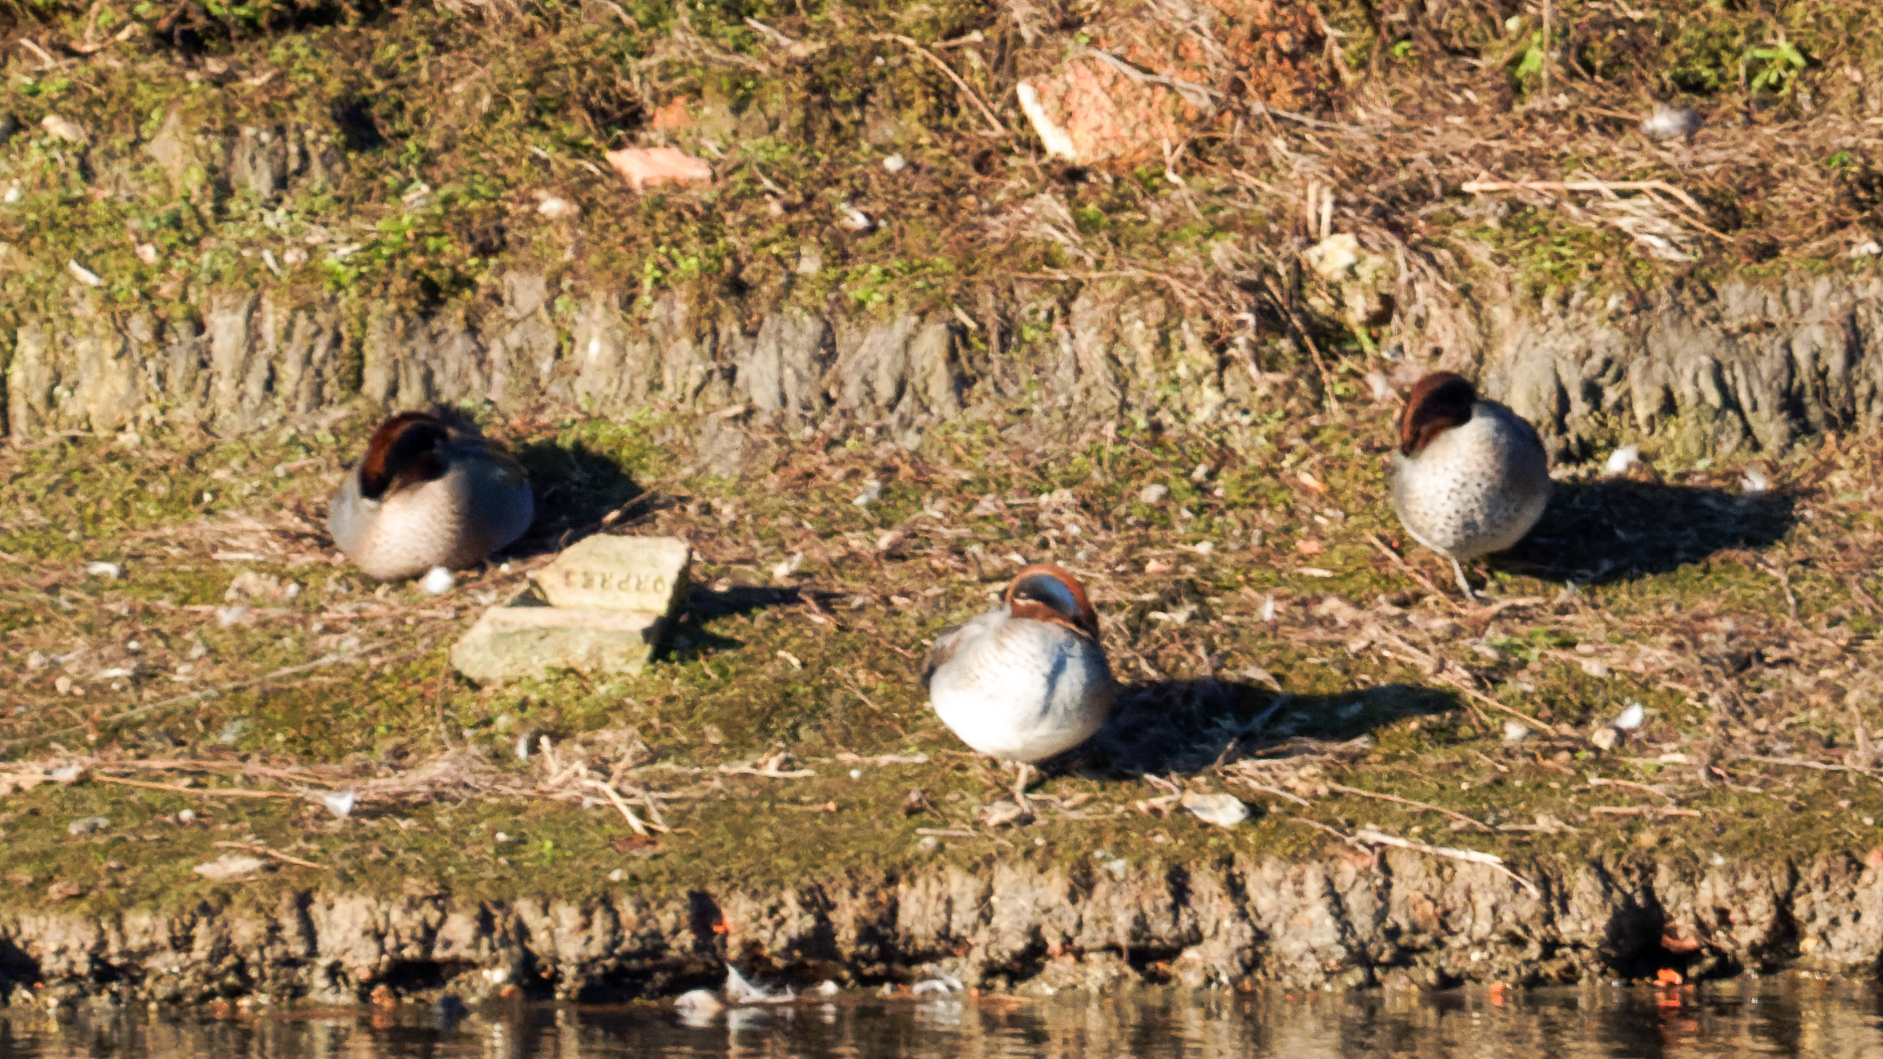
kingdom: Animalia
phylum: Chordata
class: Aves
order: Anseriformes
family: Anatidae
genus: Anas
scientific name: Anas crecca
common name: Eurasian teal
